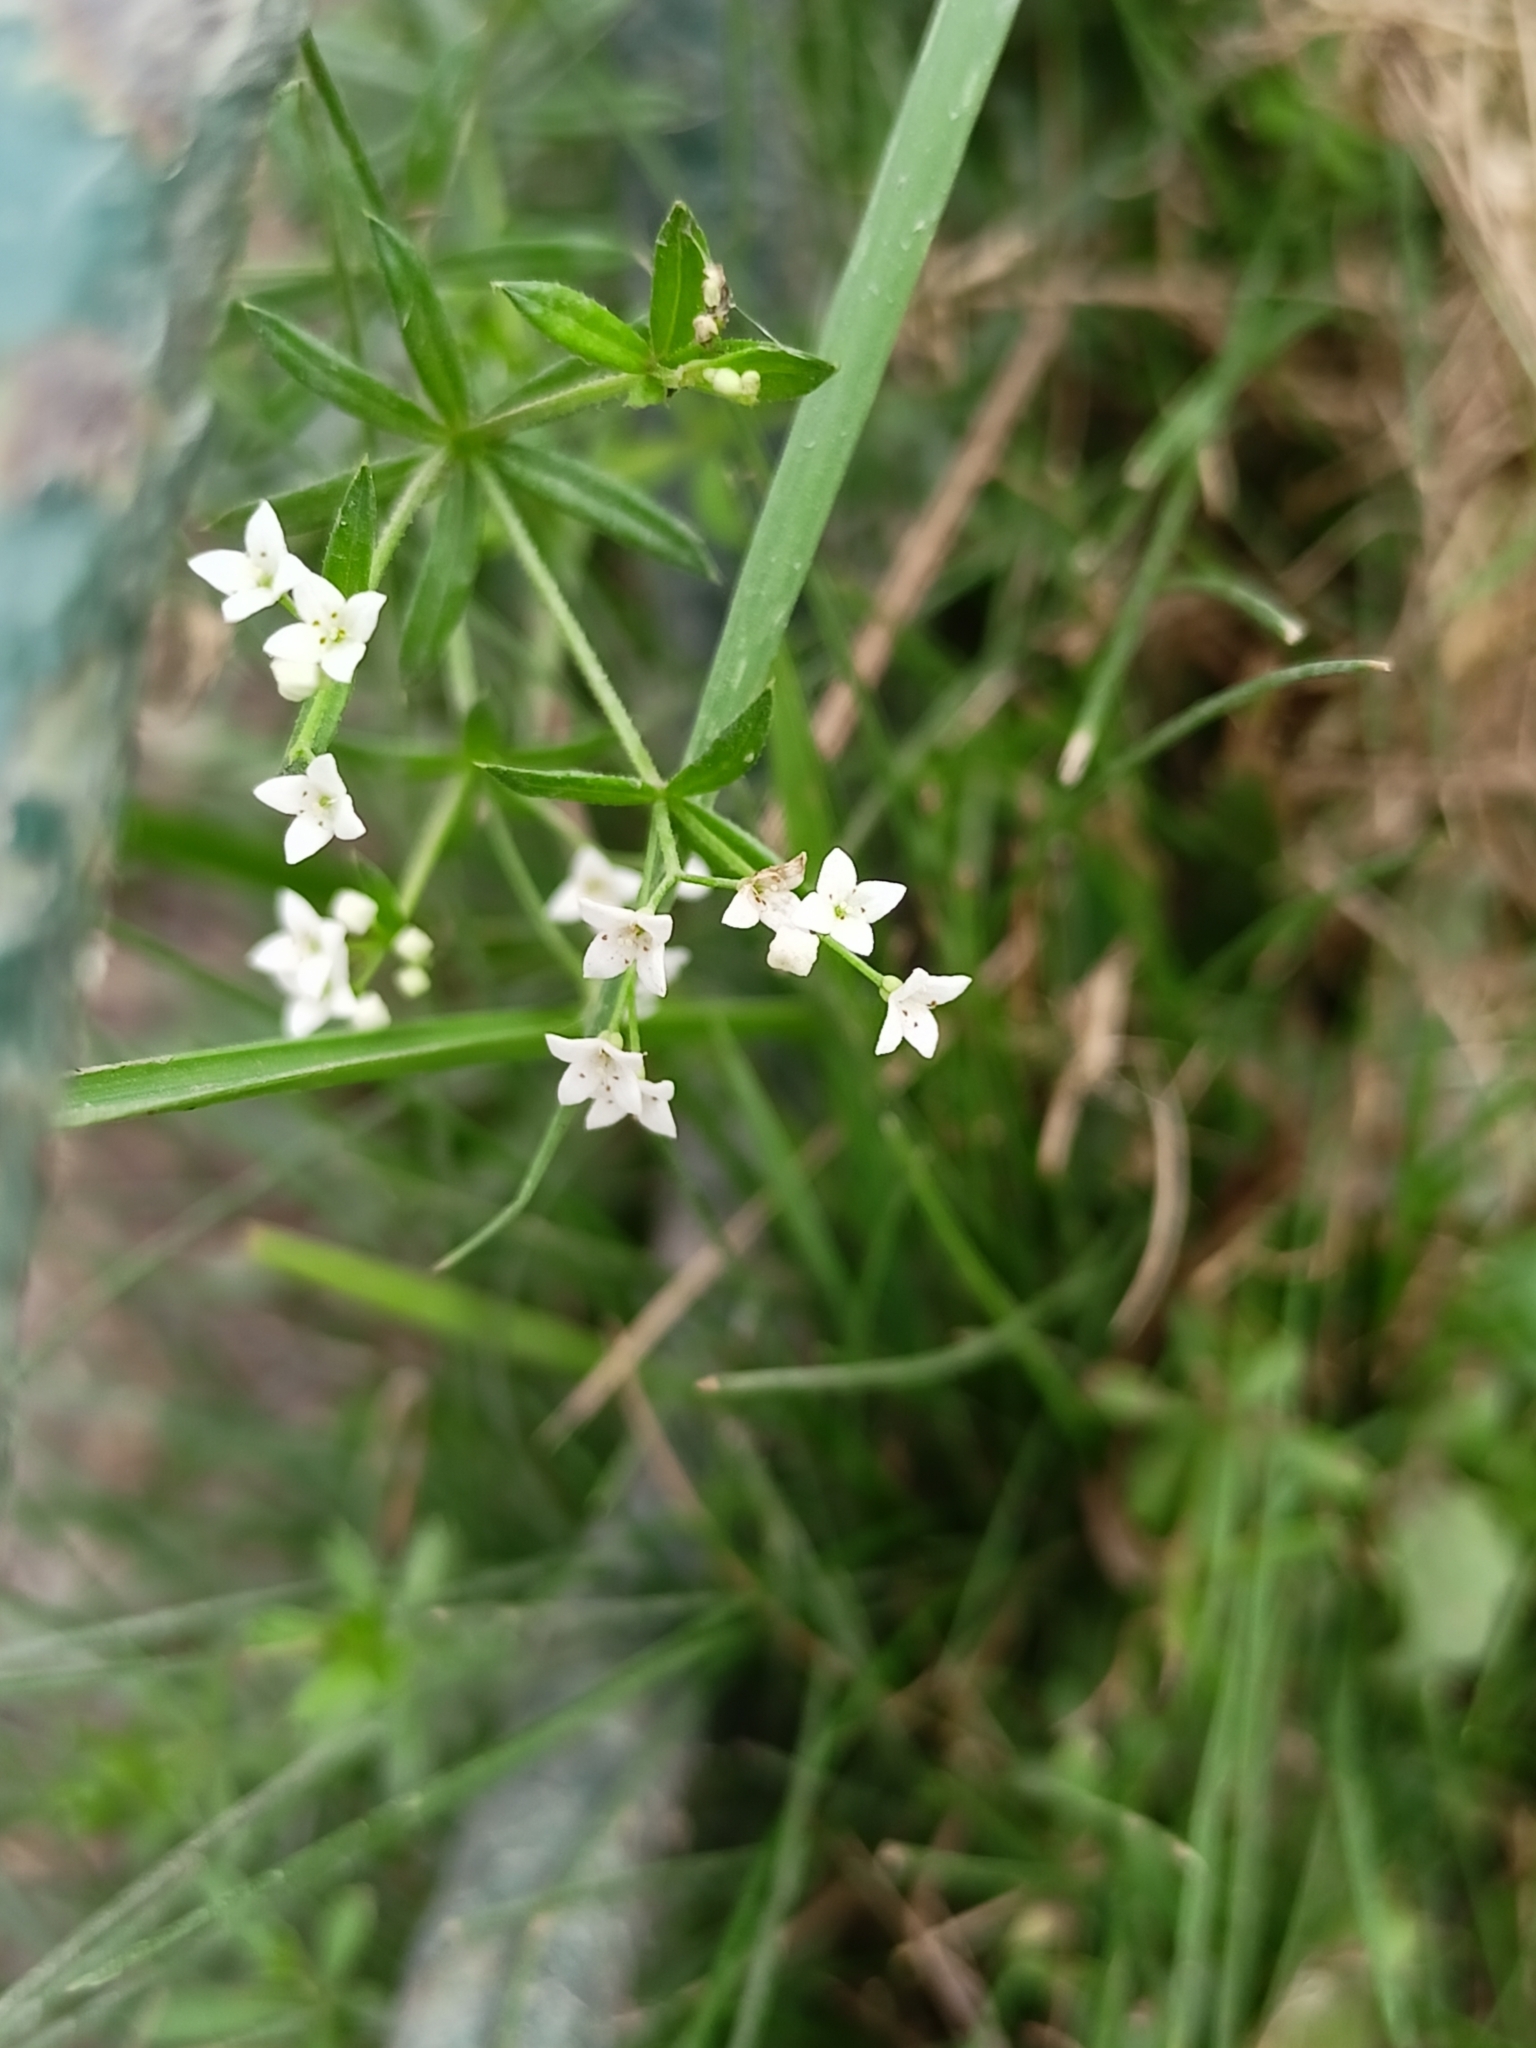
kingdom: Plantae
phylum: Tracheophyta
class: Magnoliopsida
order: Gentianales
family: Rubiaceae
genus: Galium
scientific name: Galium uliginosum
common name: Fen bedstraw
